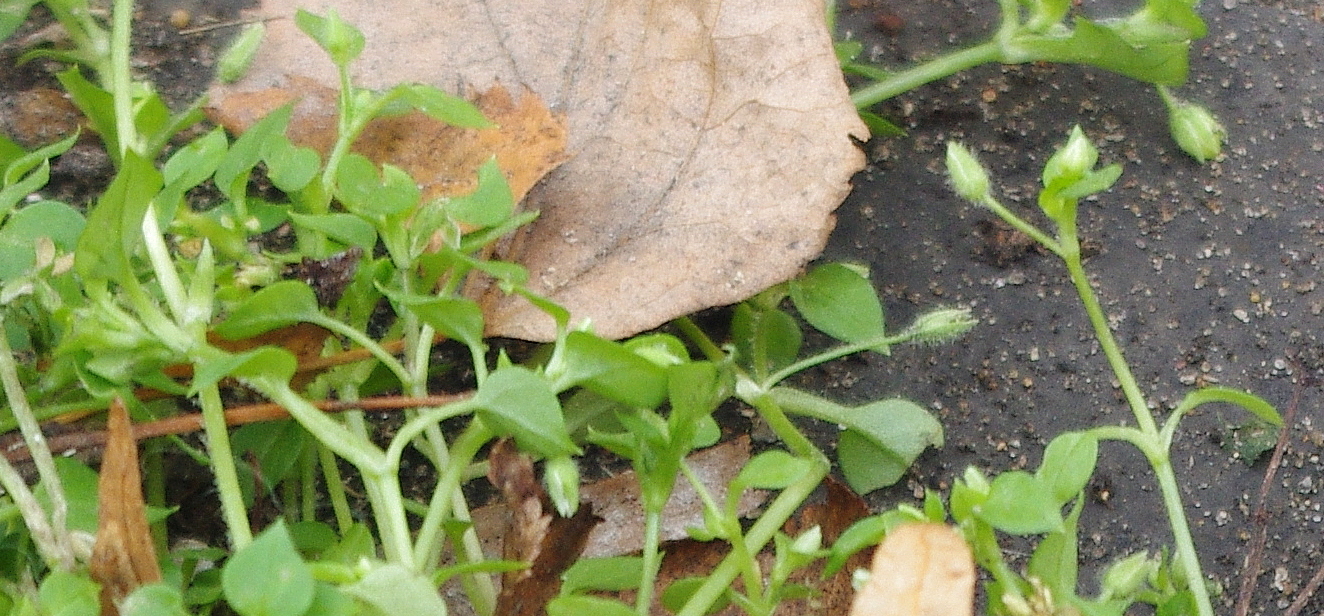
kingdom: Plantae
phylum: Tracheophyta
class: Magnoliopsida
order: Caryophyllales
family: Caryophyllaceae
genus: Stellaria
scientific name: Stellaria media
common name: Common chickweed
